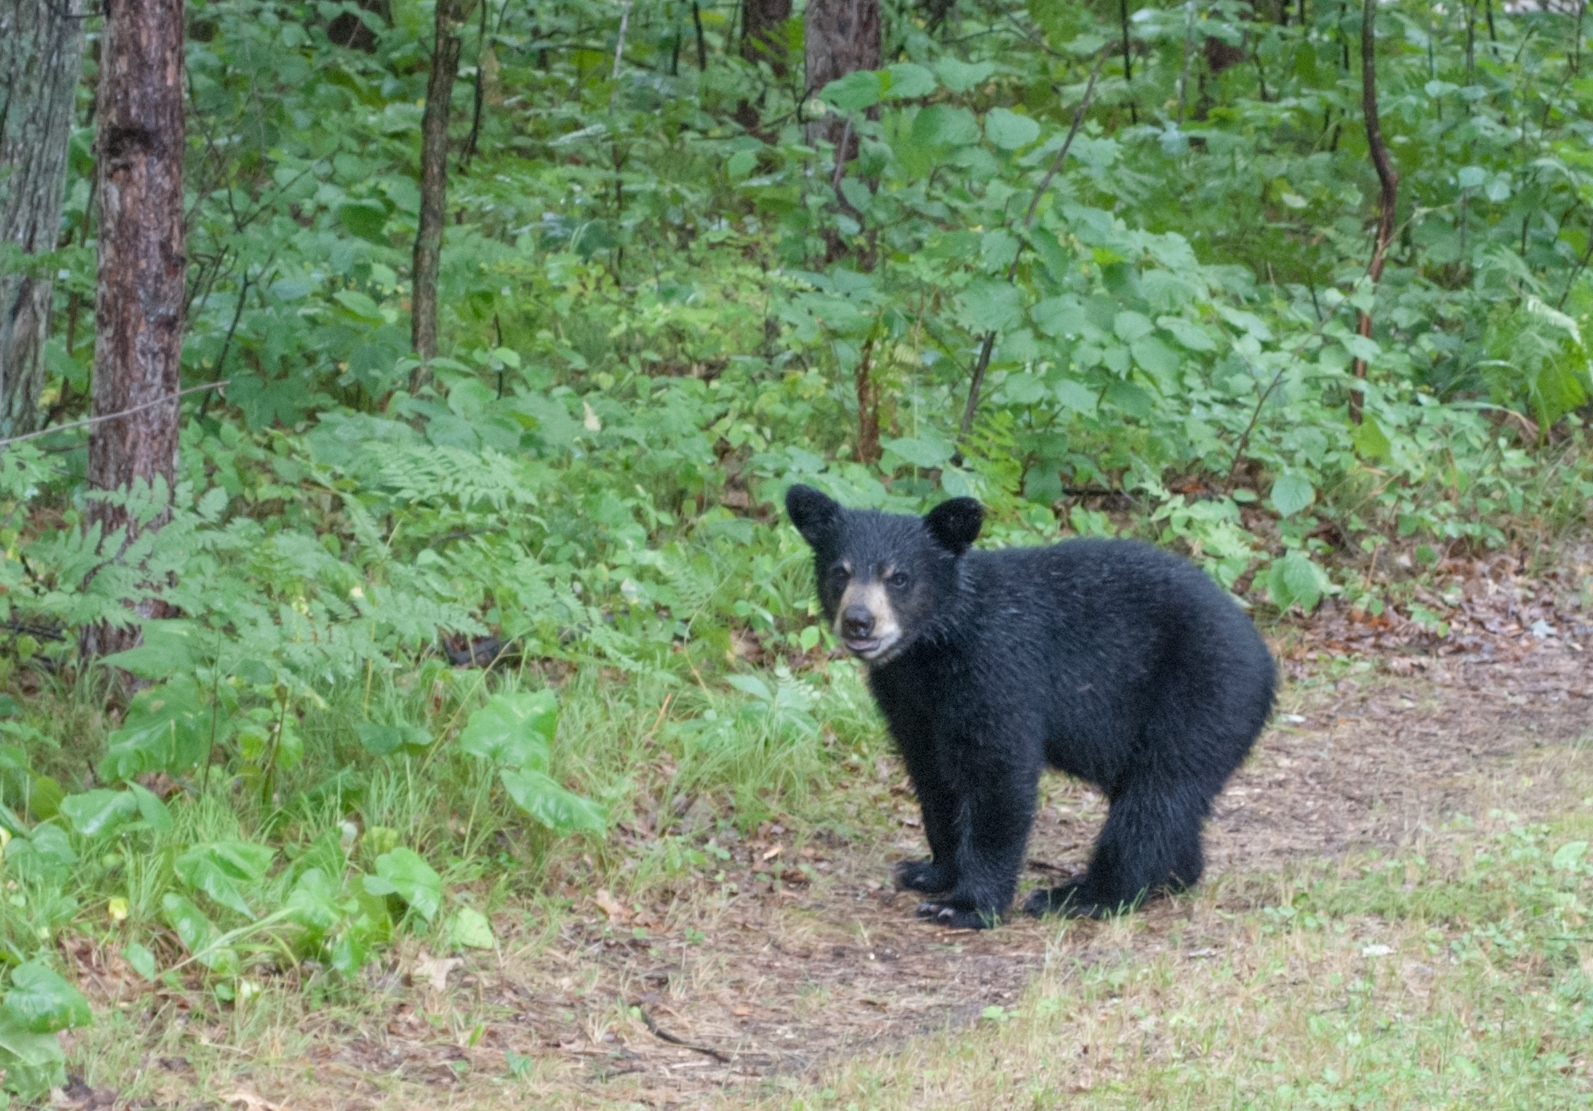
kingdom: Animalia
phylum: Chordata
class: Mammalia
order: Carnivora
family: Ursidae
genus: Ursus
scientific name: Ursus americanus
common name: American black bear
